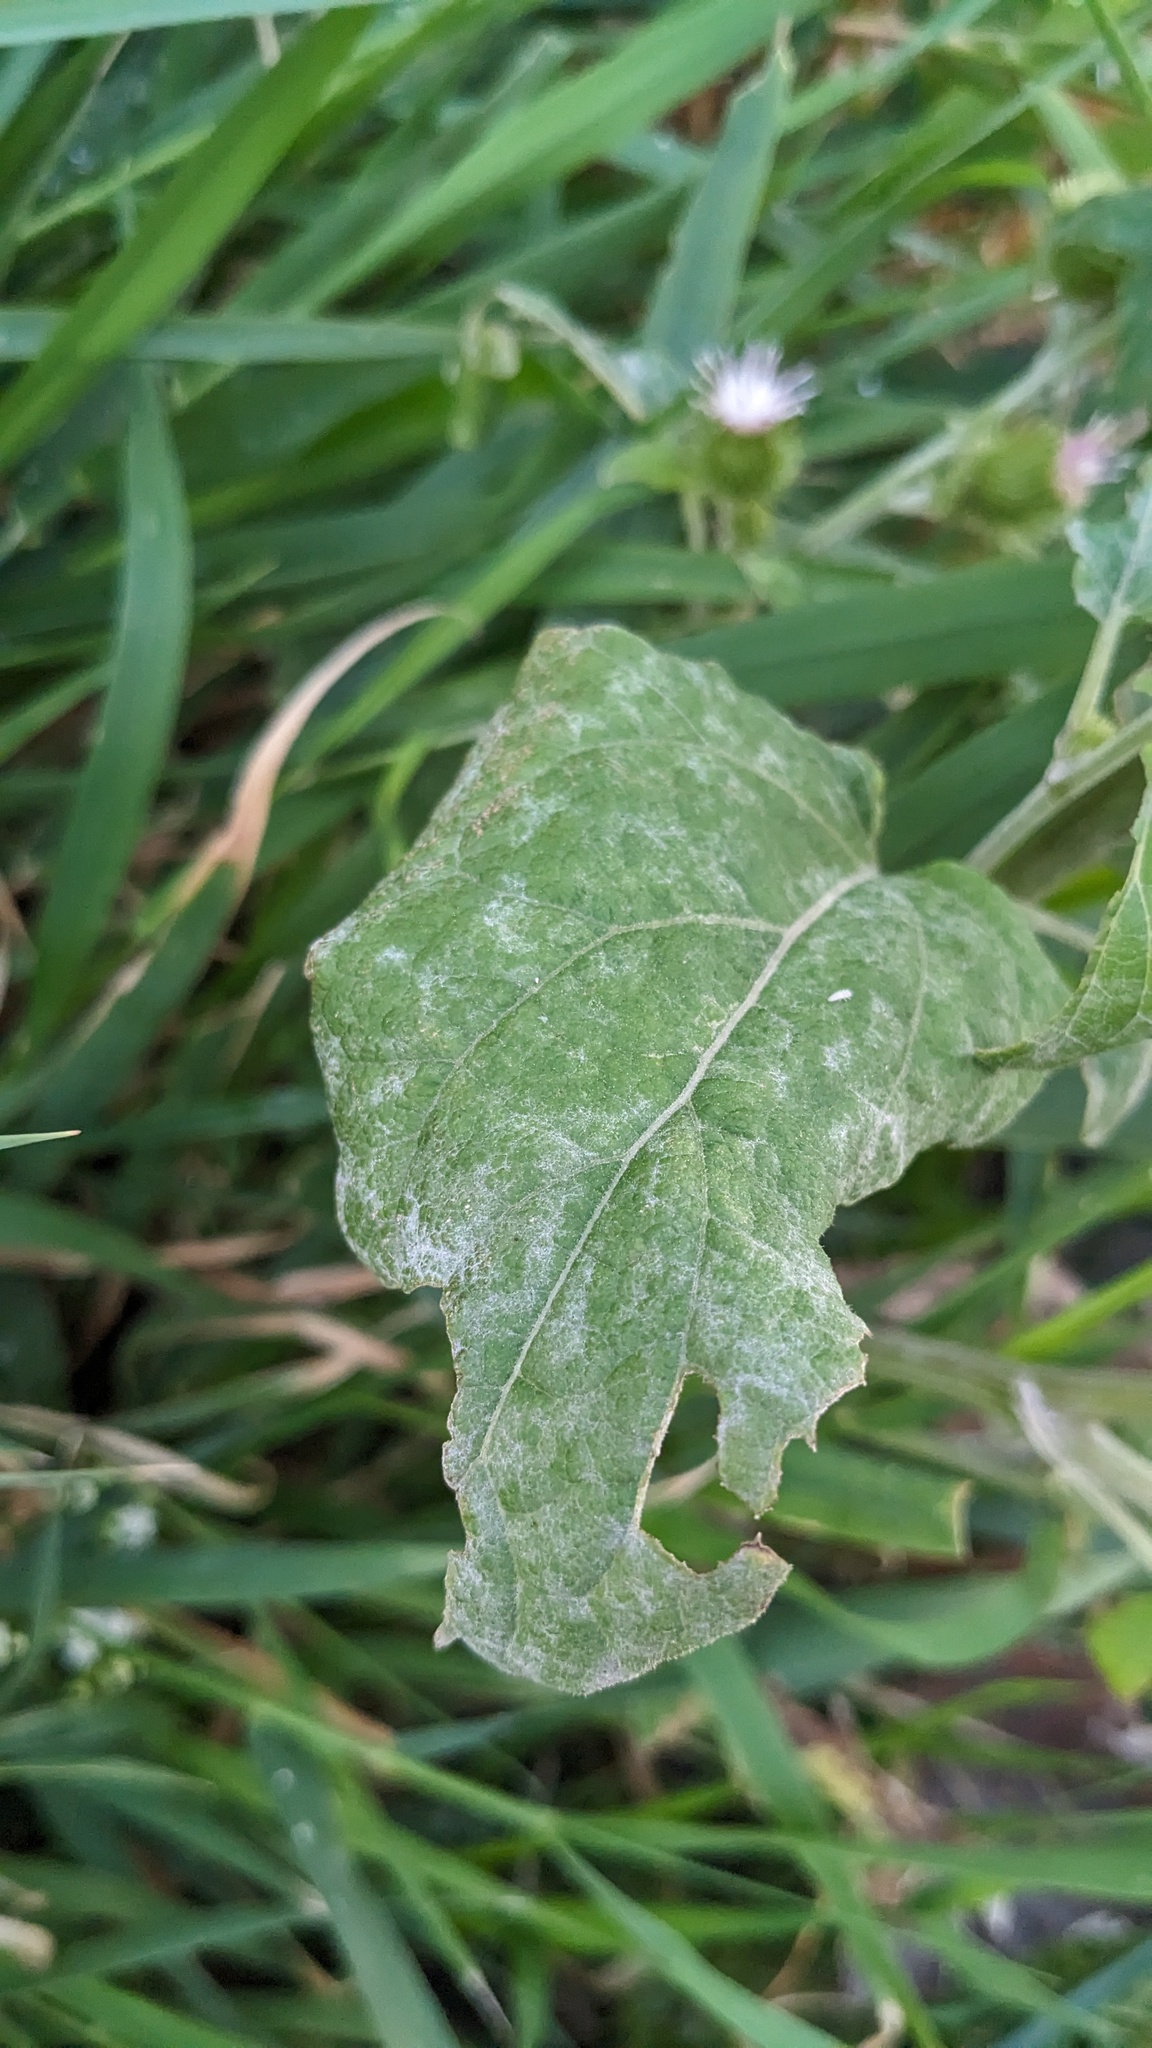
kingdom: Fungi
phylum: Ascomycota
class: Leotiomycetes
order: Helotiales
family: Erysiphaceae
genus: Golovinomyces
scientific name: Golovinomyces depressus
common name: Burdock mildew
